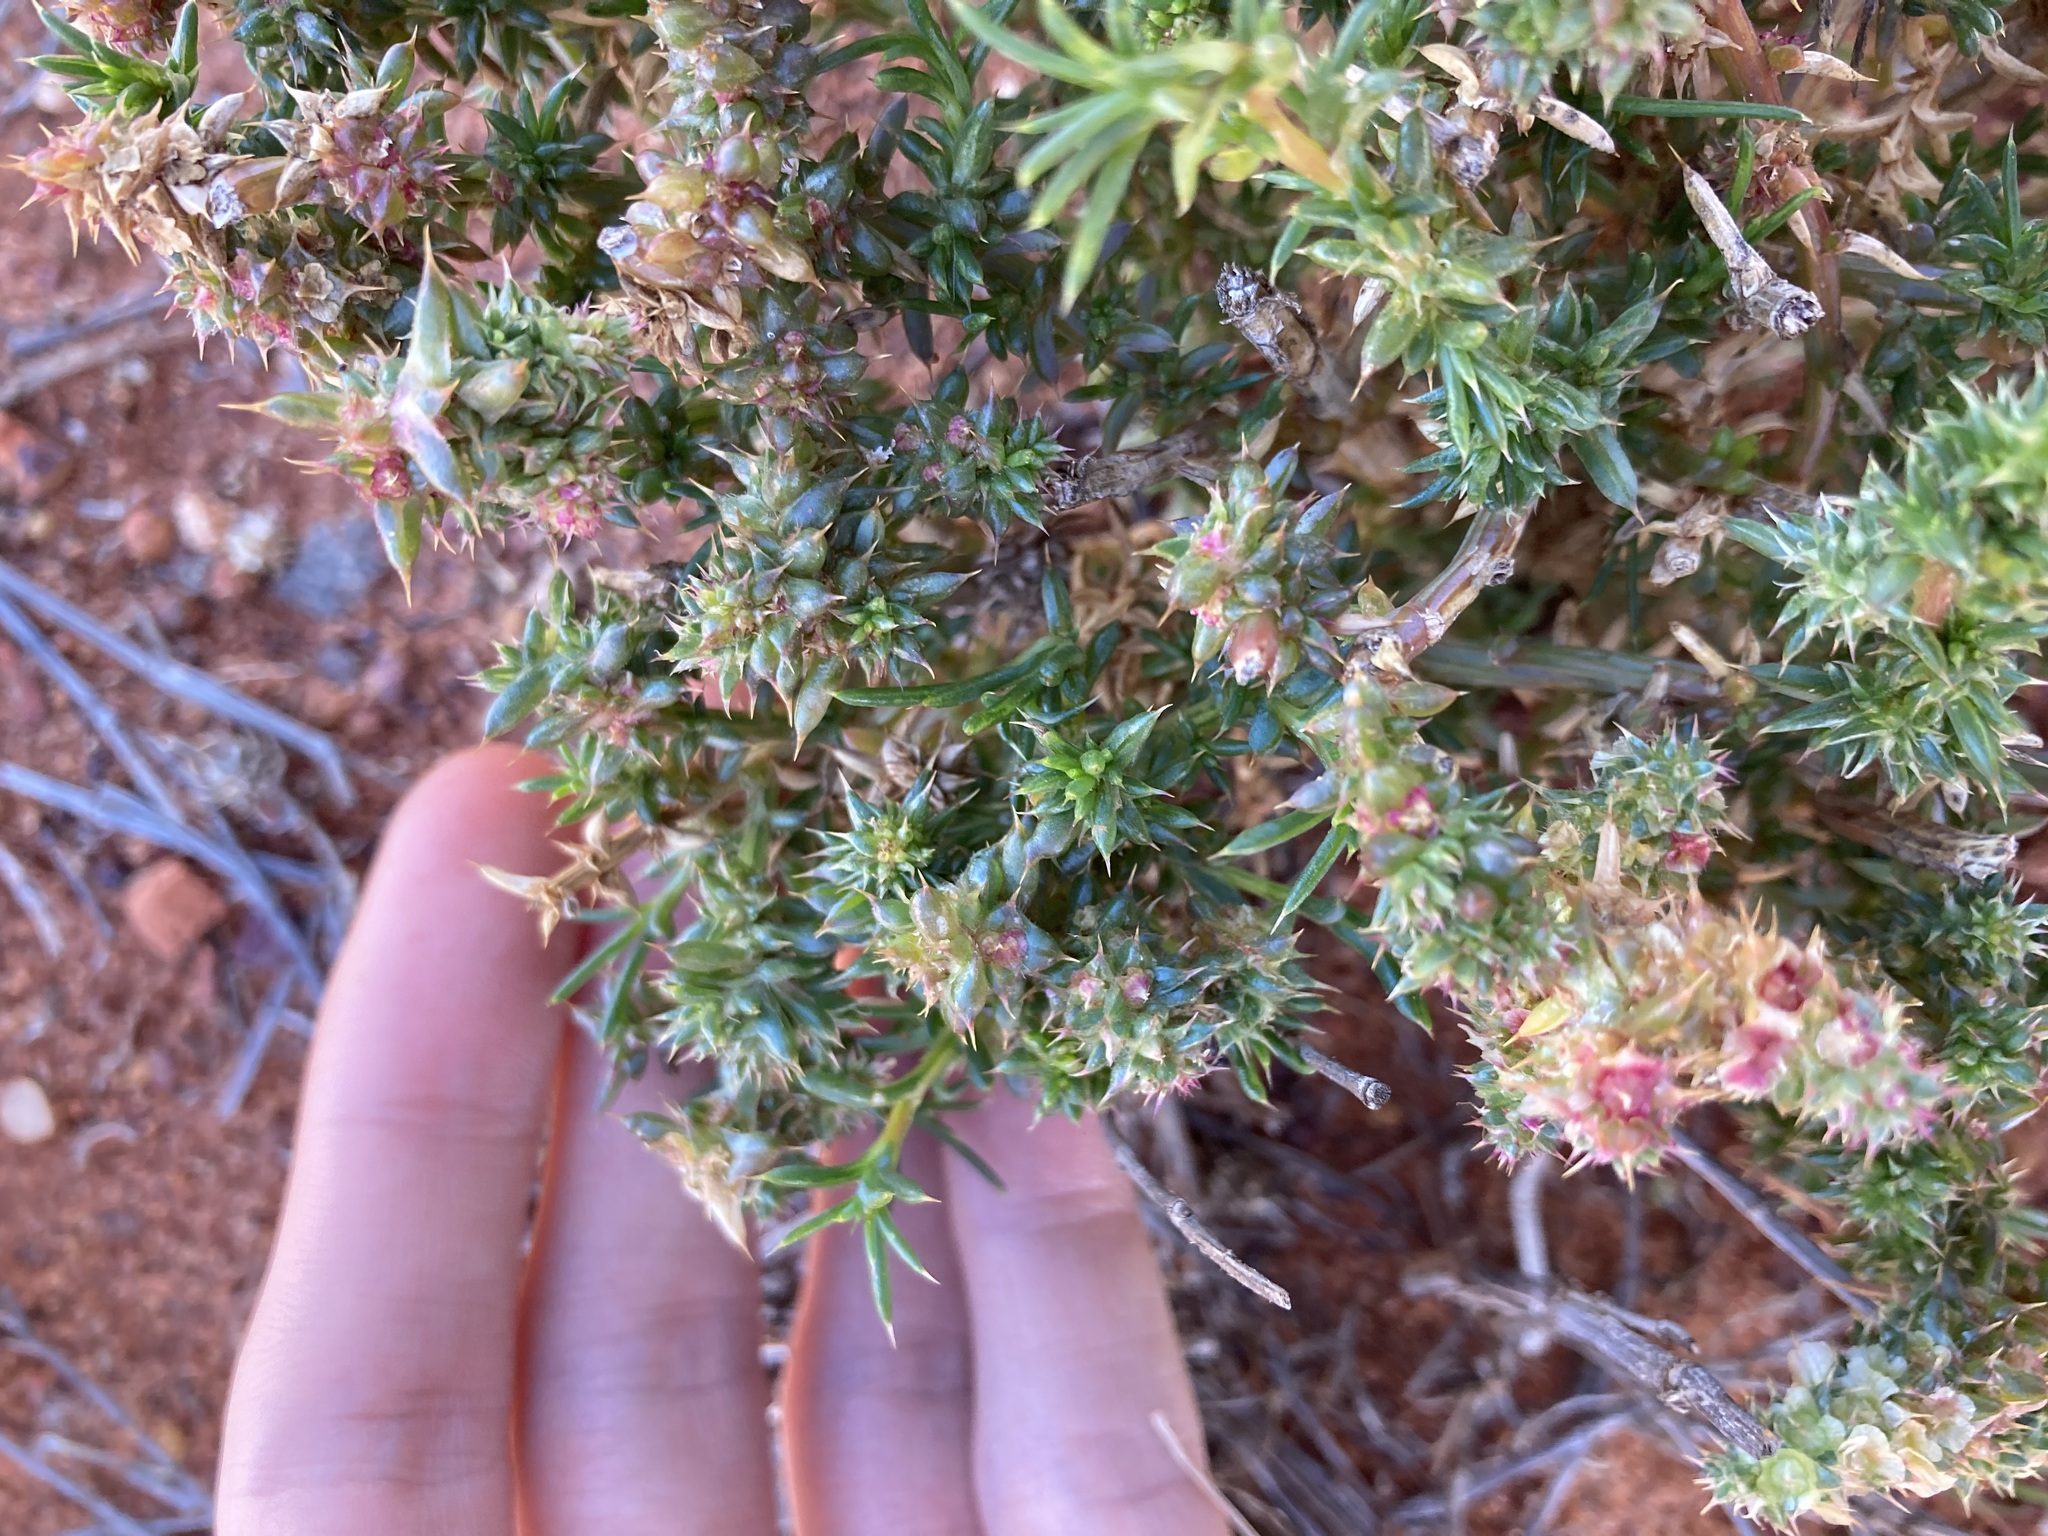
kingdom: Plantae
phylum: Tracheophyta
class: Magnoliopsida
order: Caryophyllales
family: Amaranthaceae
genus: Salsola
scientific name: Salsola australis
